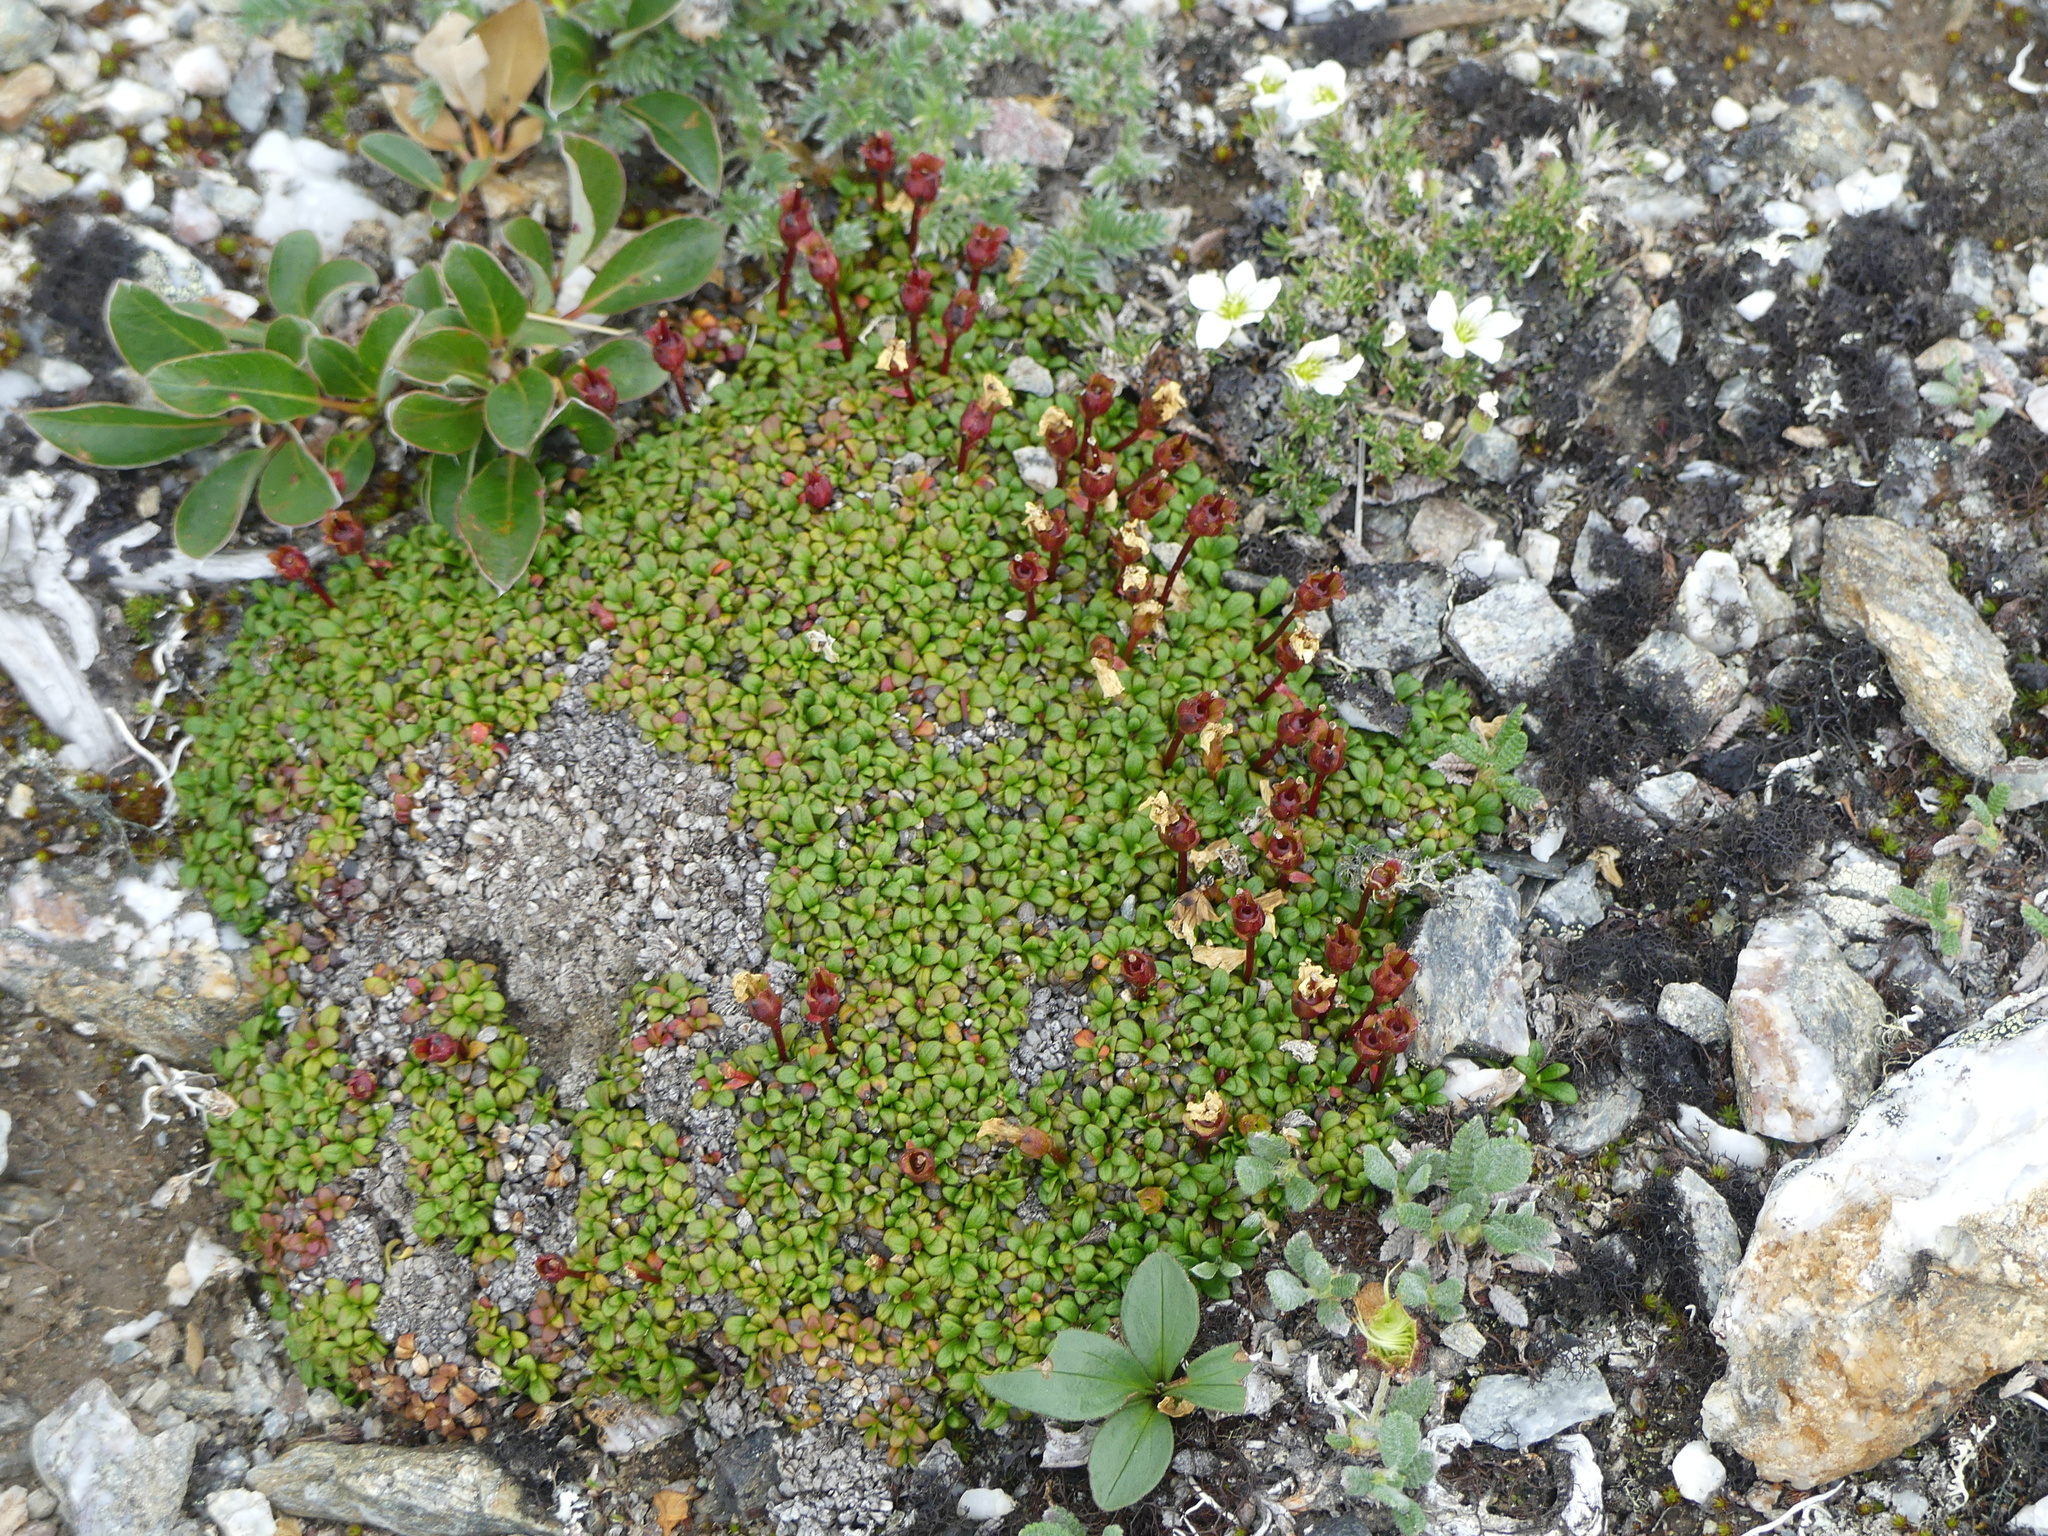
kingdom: Plantae
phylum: Tracheophyta
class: Magnoliopsida
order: Ericales
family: Diapensiaceae
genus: Diapensia
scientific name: Diapensia obovata
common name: Alaska diapensia
